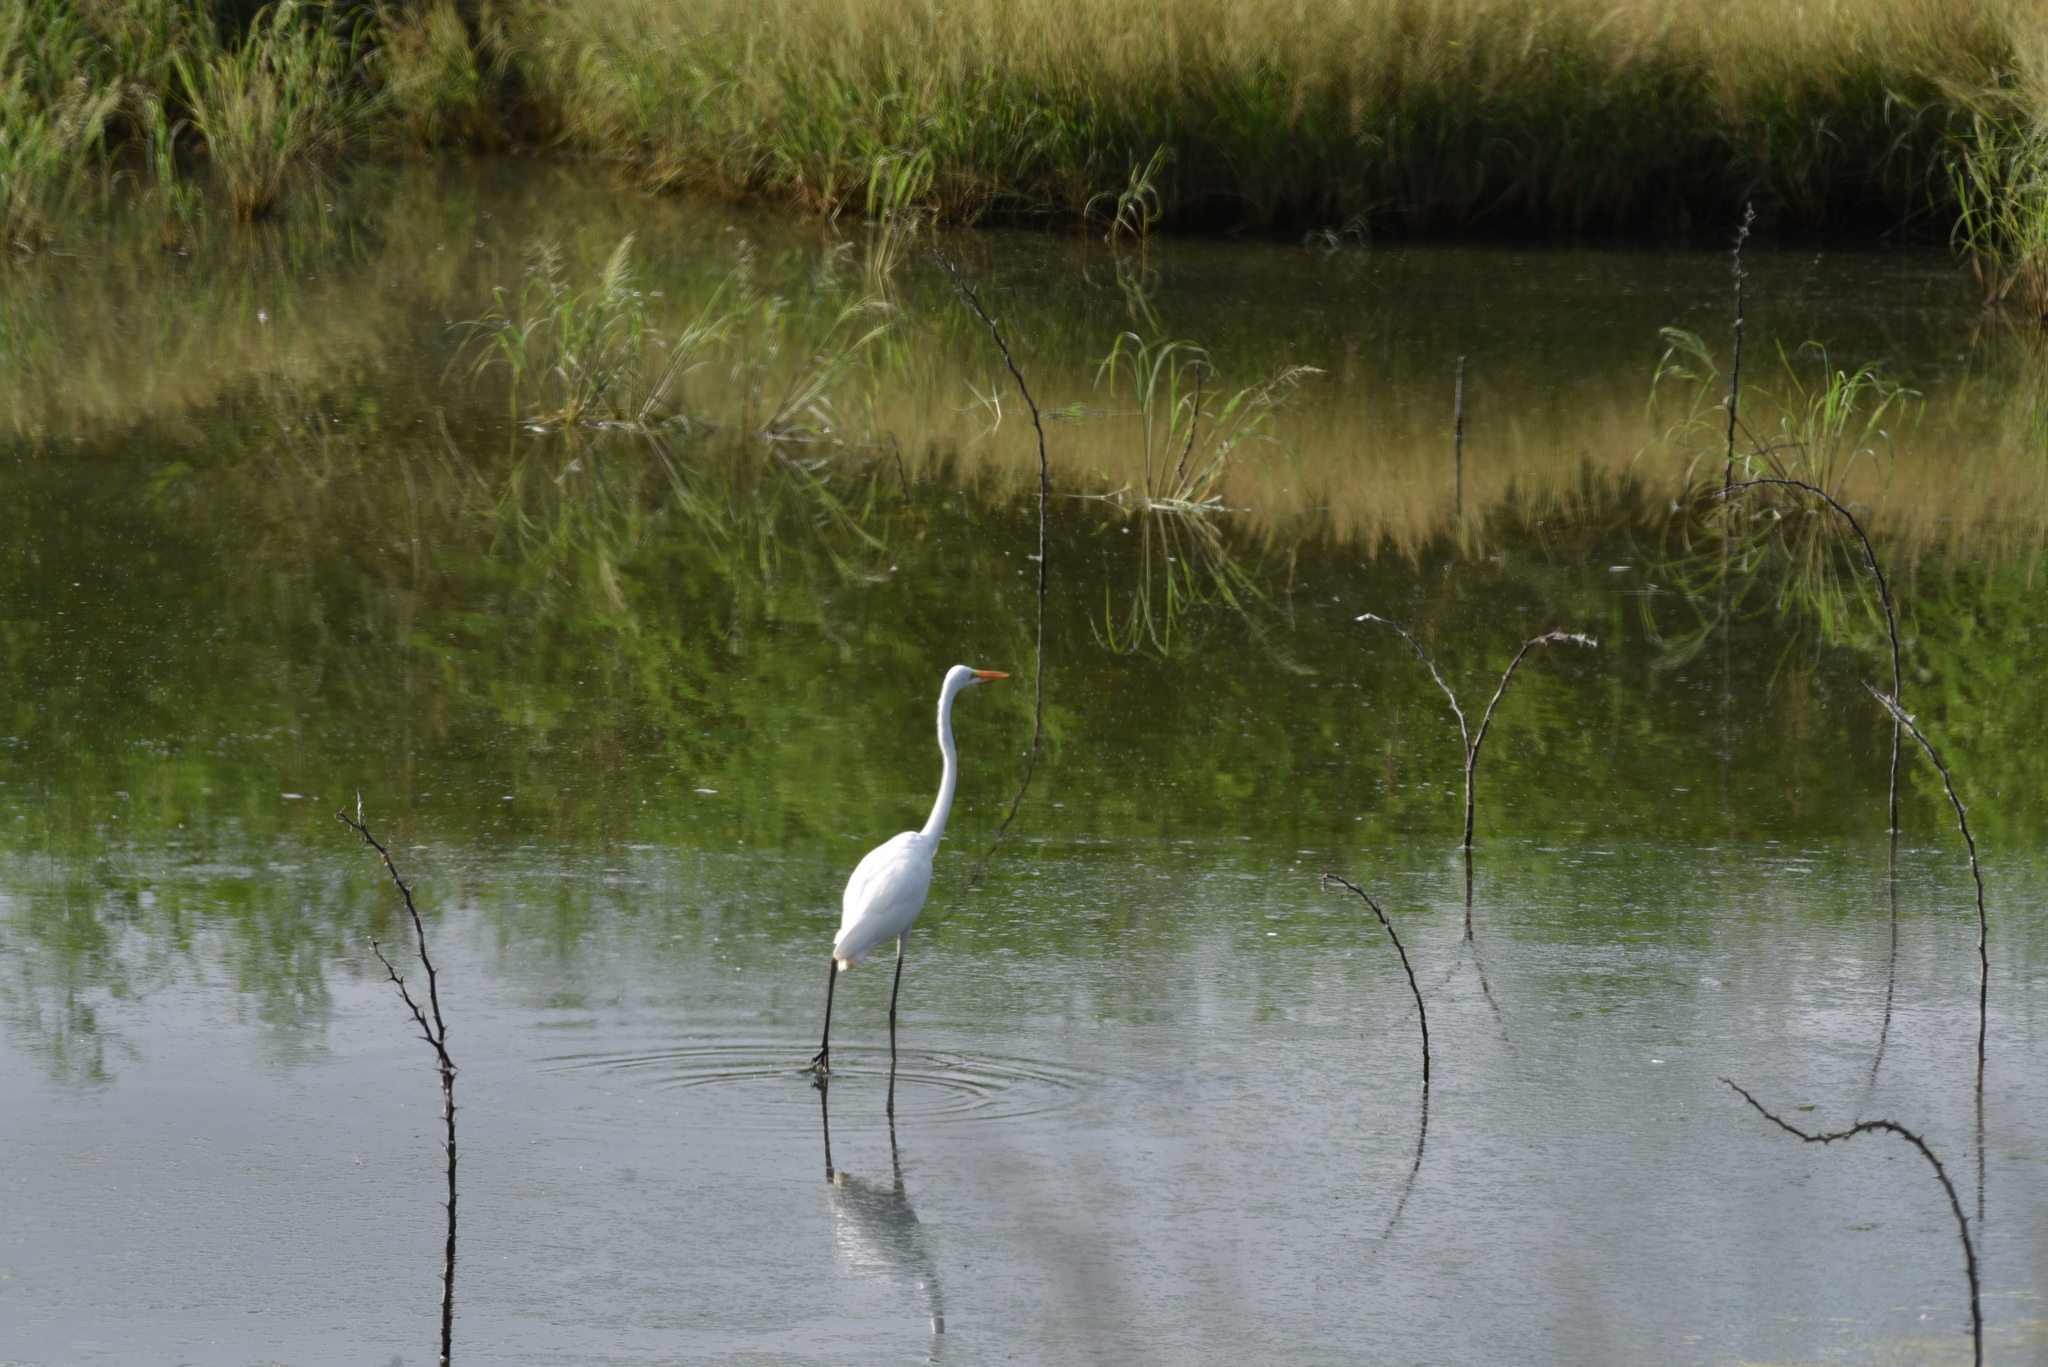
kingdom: Animalia
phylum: Chordata
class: Aves
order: Pelecaniformes
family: Ardeidae
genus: Ardea
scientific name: Ardea alba
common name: Great egret
